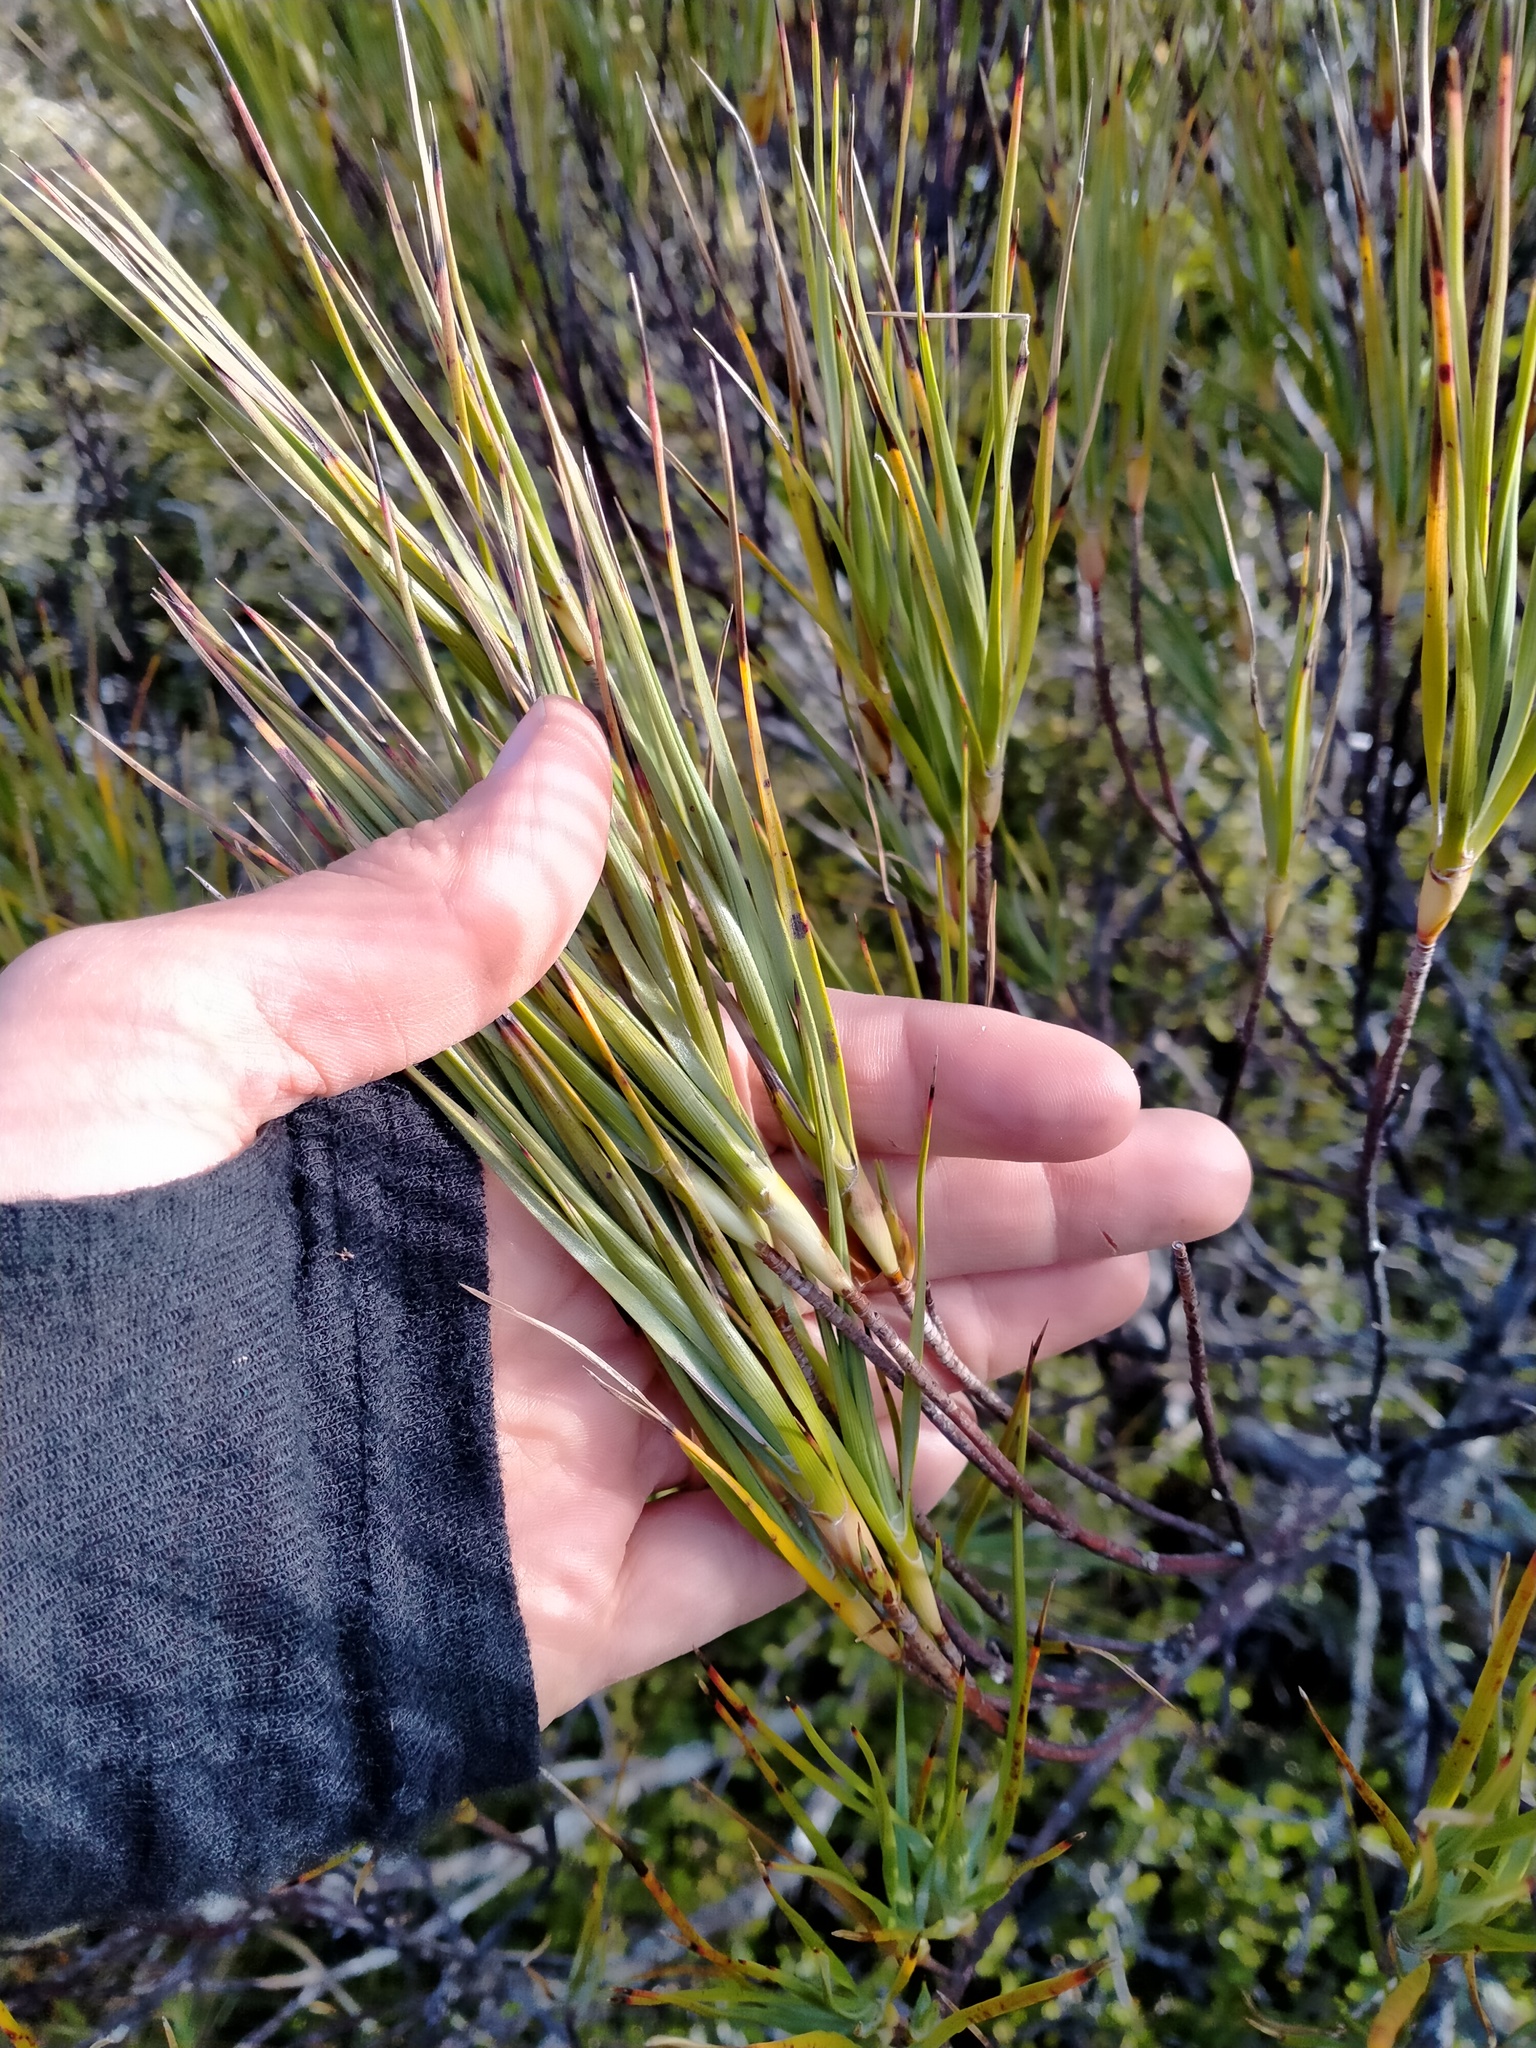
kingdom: Plantae
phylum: Tracheophyta
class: Magnoliopsida
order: Ericales
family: Ericaceae
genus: Dracophyllum
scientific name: Dracophyllum longifolium
